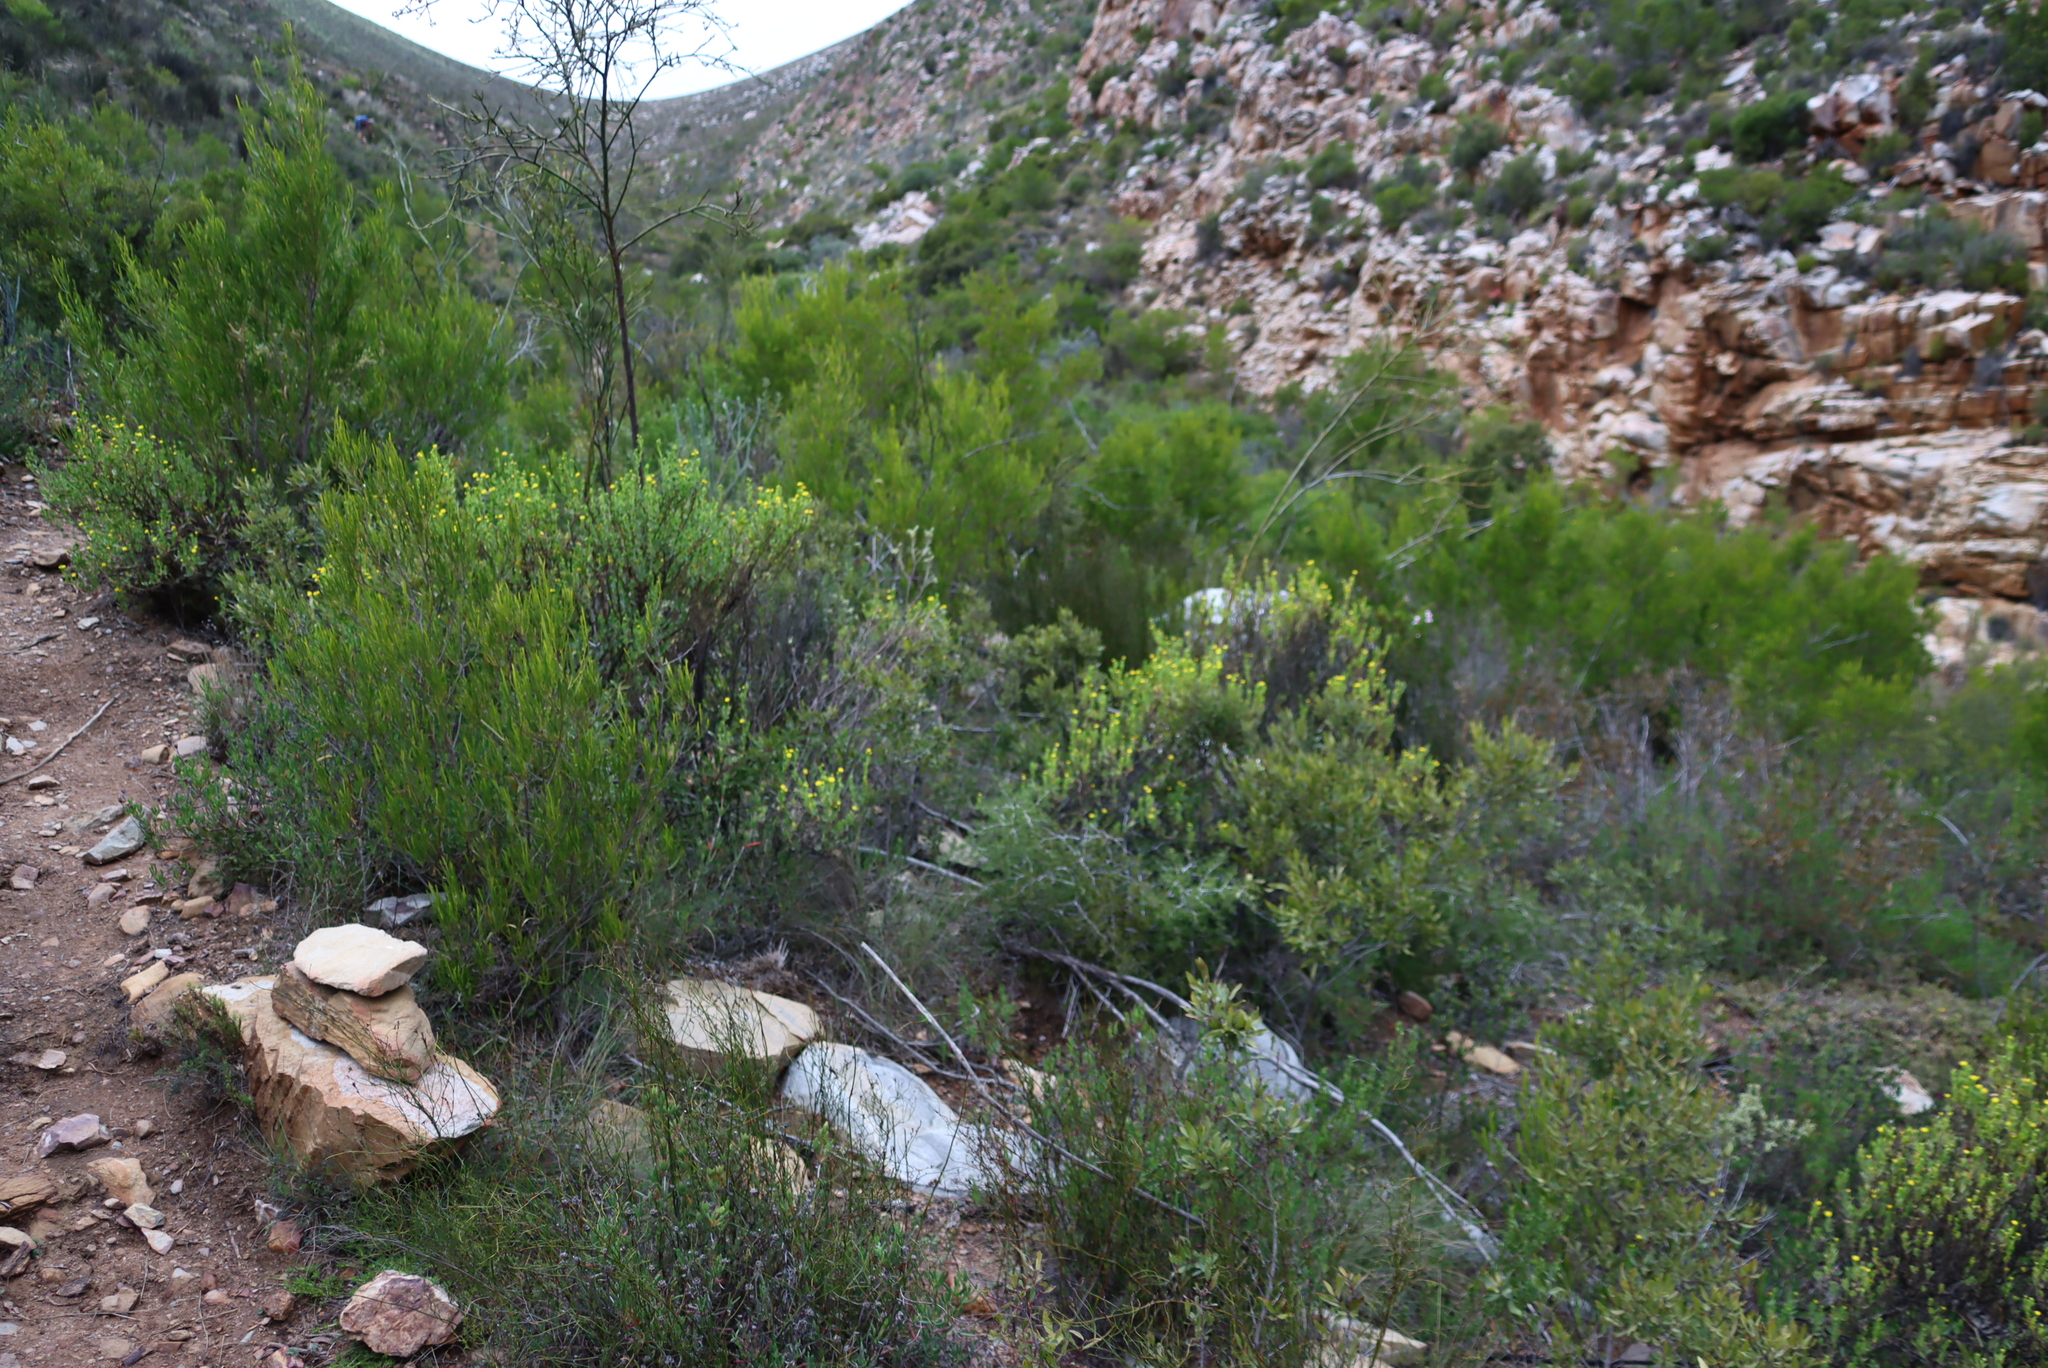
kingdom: Plantae
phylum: Tracheophyta
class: Magnoliopsida
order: Asterales
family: Asteraceae
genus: Hertia
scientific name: Hertia kraussii
